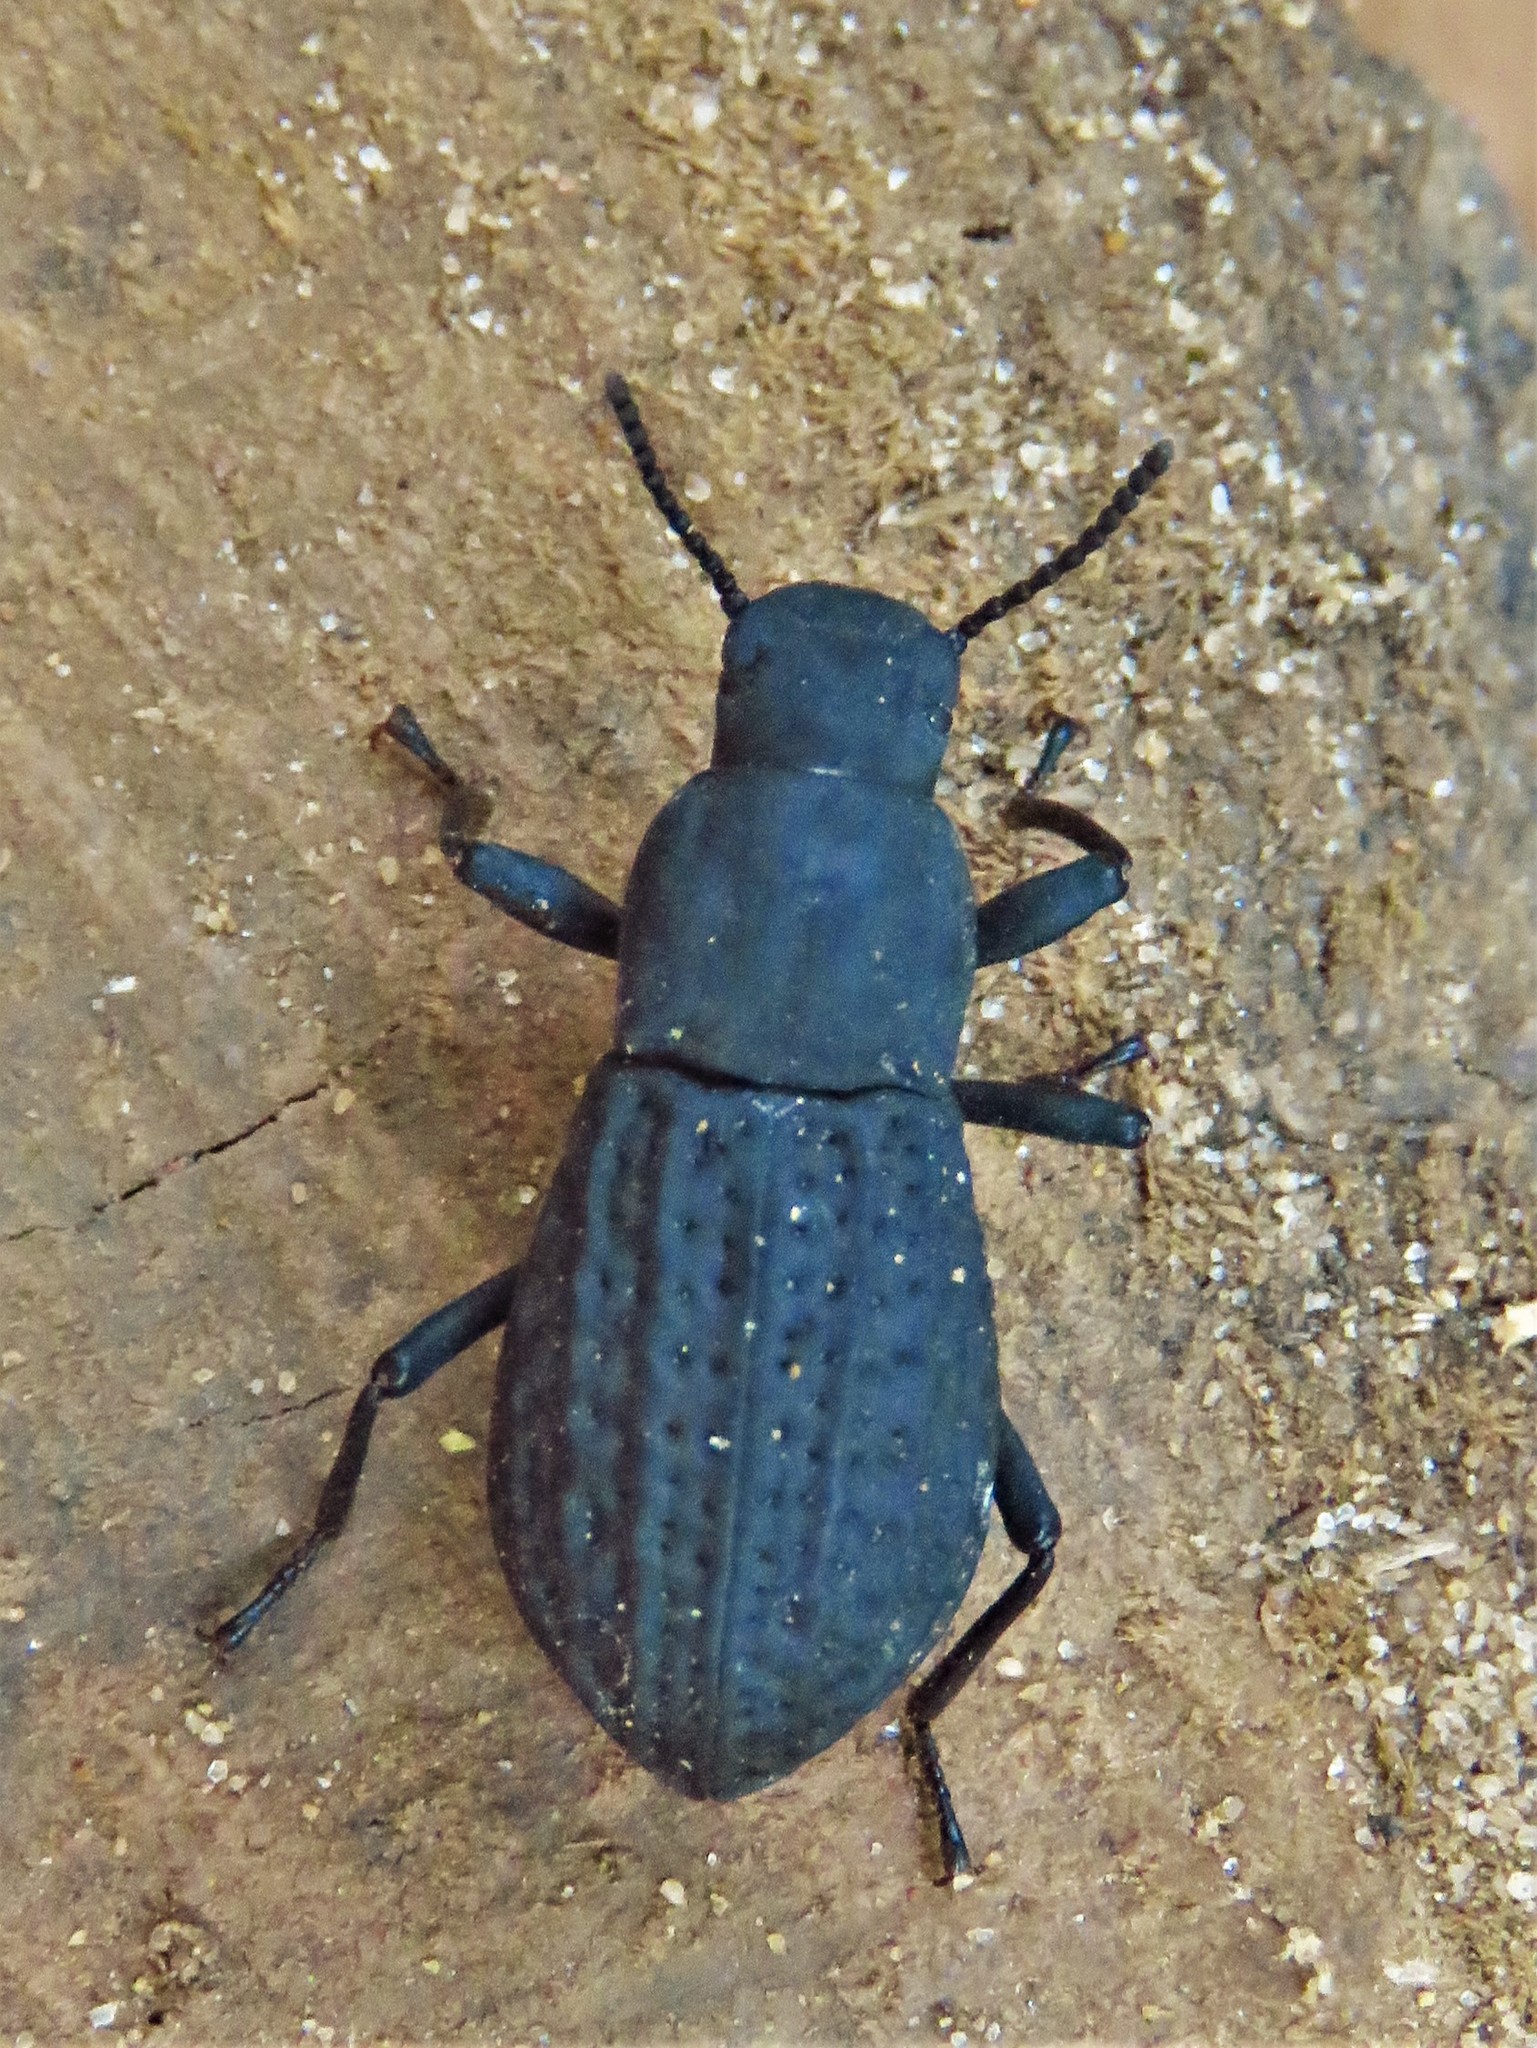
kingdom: Animalia
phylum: Arthropoda
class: Insecta
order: Coleoptera
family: Tenebrionidae
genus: Polypleurus
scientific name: Polypleurus perforatus
